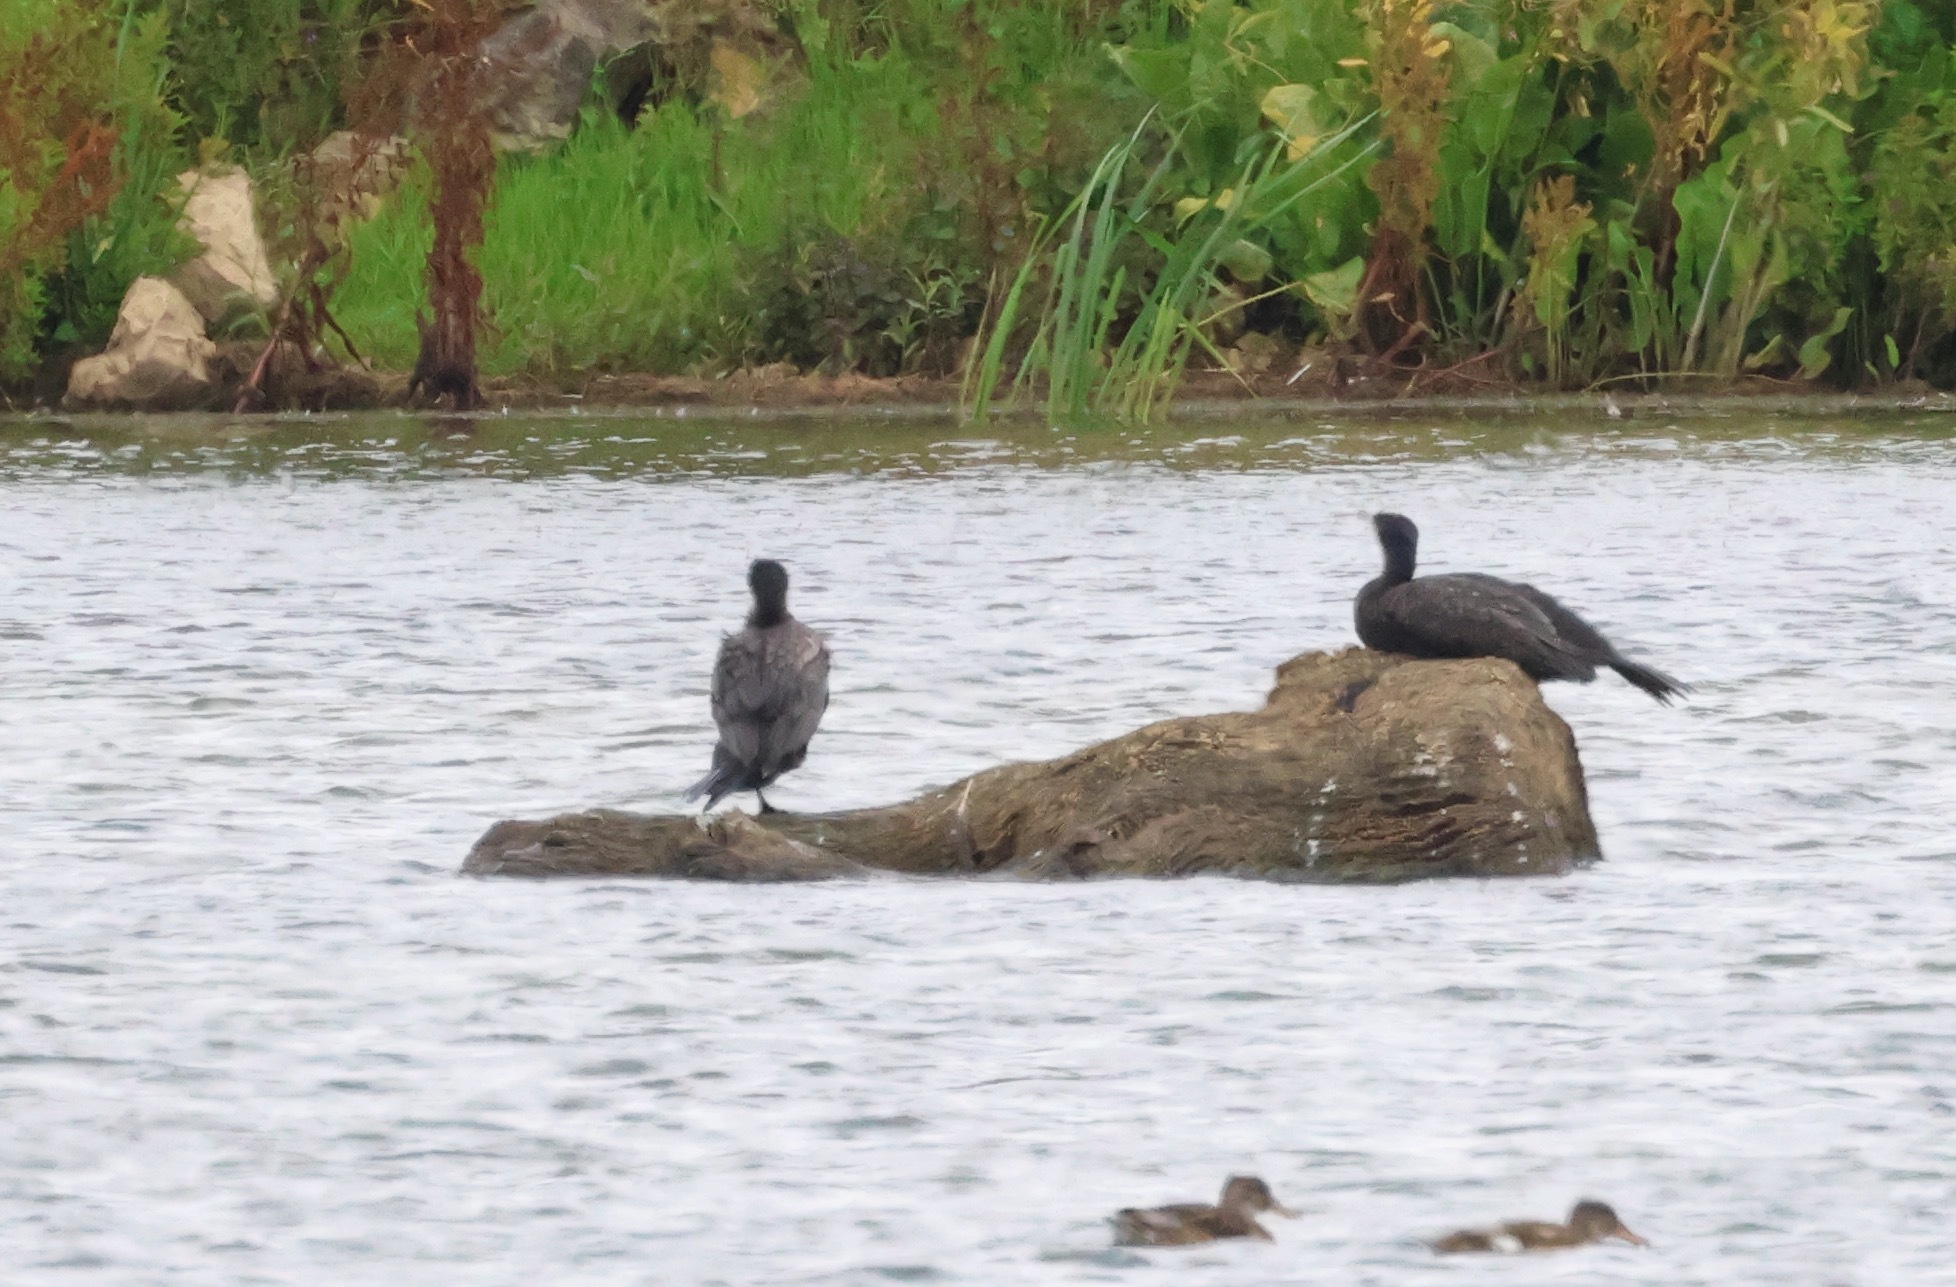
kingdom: Animalia
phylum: Chordata
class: Aves
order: Suliformes
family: Phalacrocoracidae
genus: Phalacrocorax
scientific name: Phalacrocorax carbo
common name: Great cormorant
